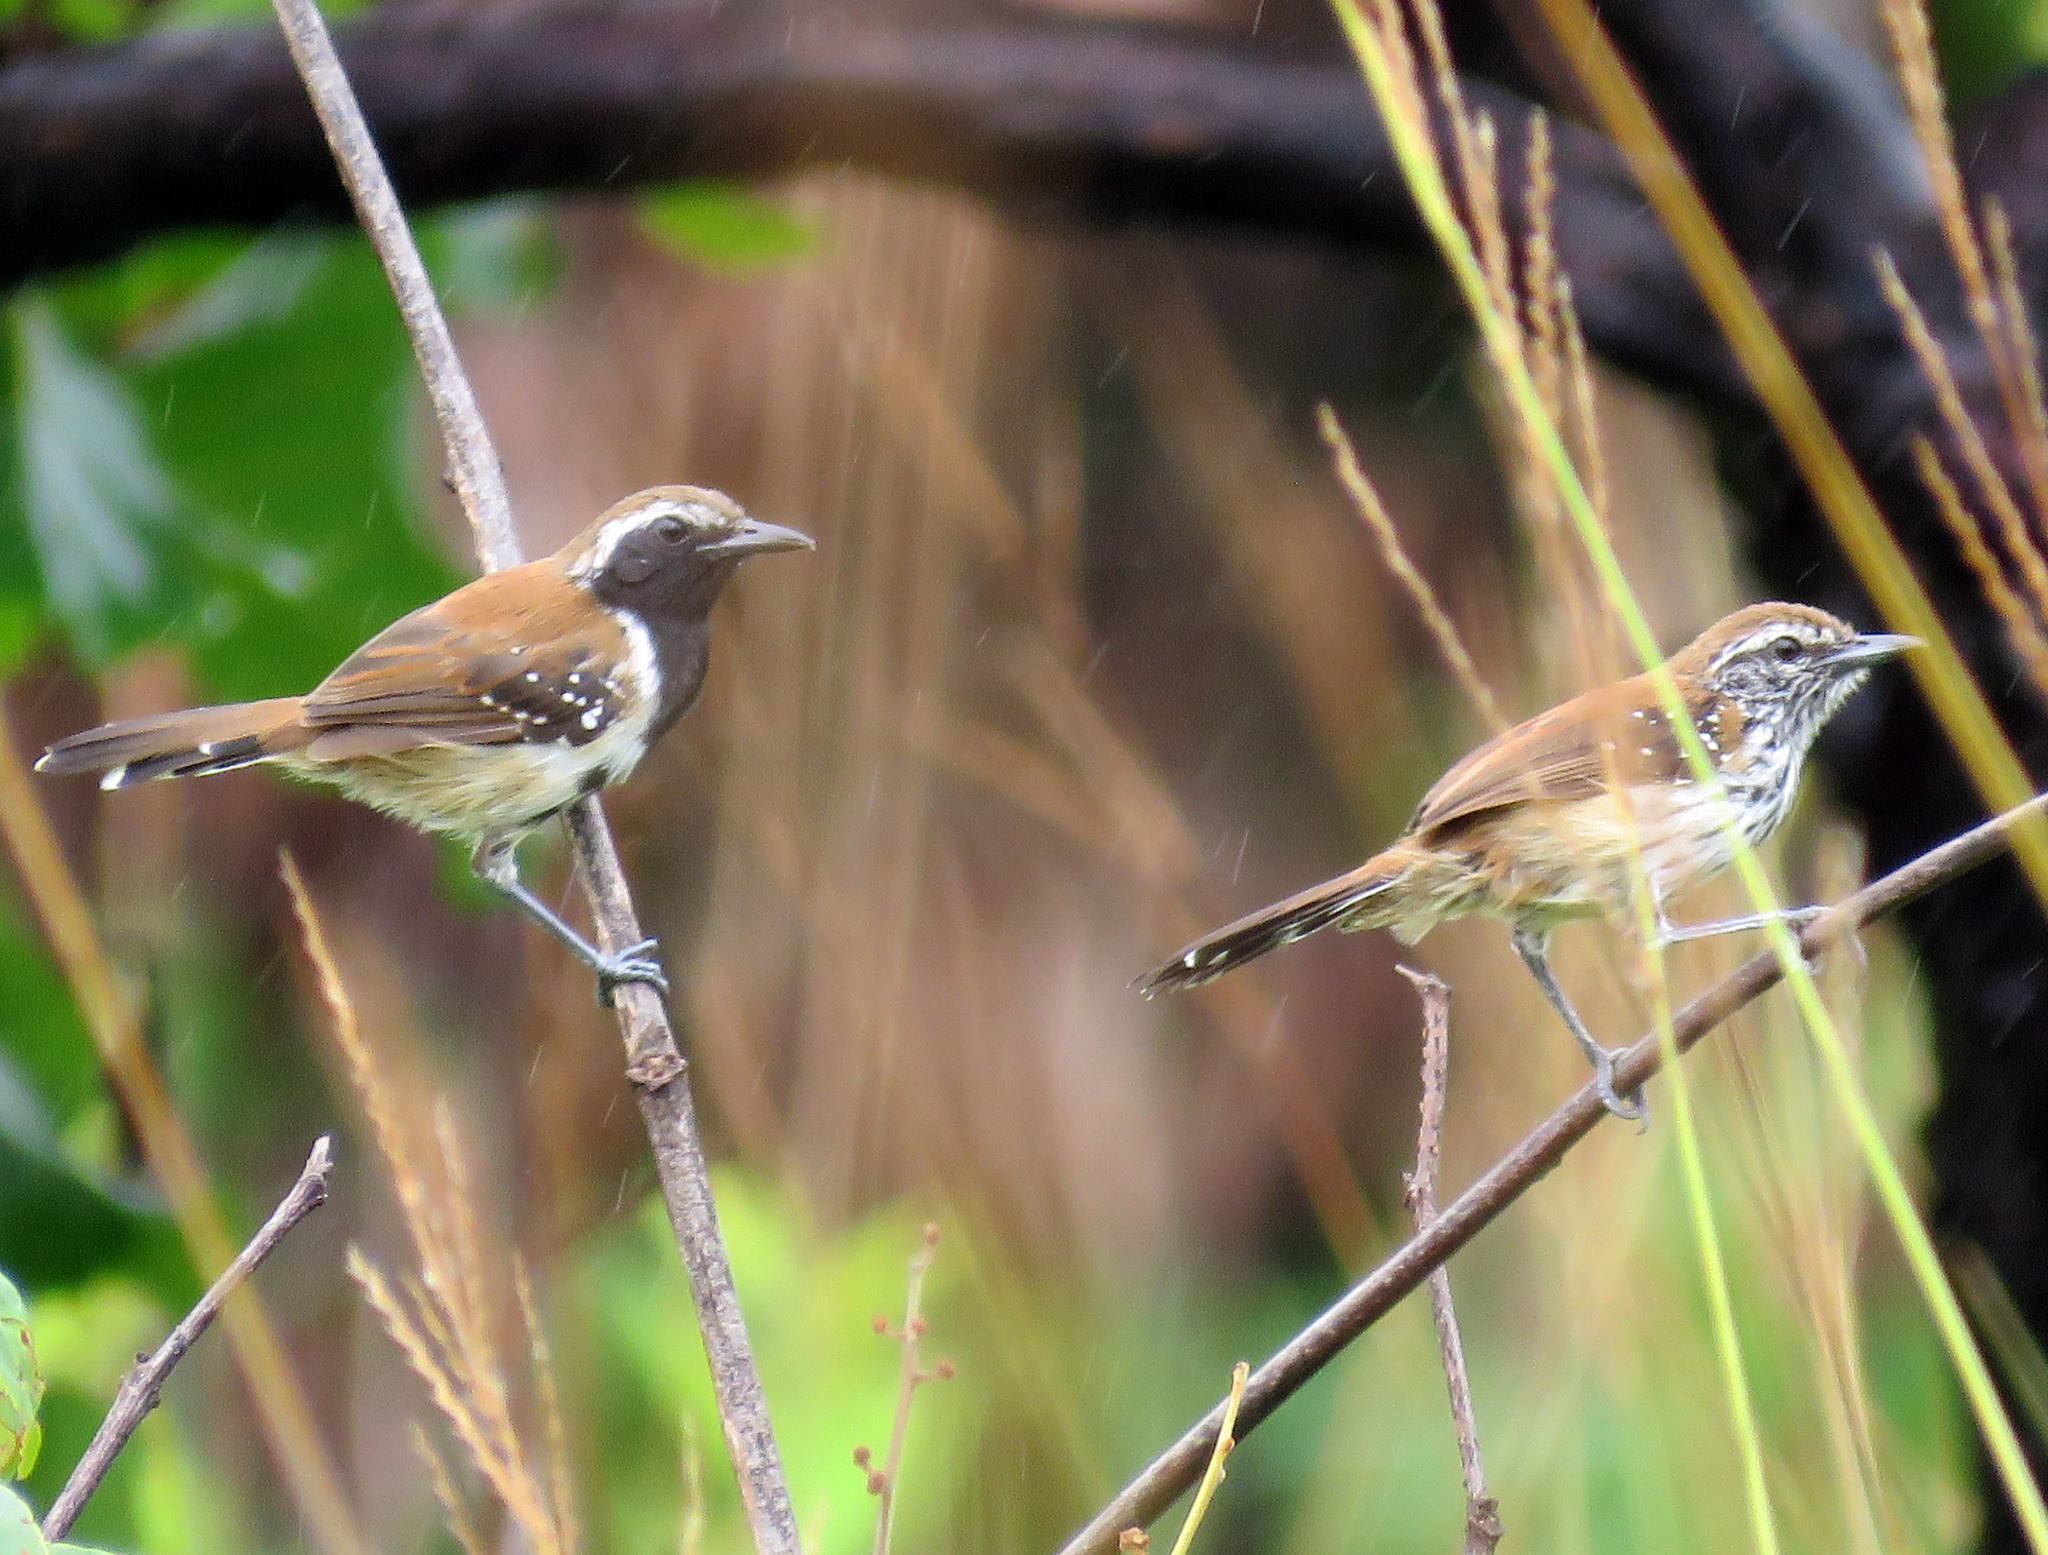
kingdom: Animalia
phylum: Chordata
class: Aves
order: Passeriformes
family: Thamnophilidae
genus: Formicivora
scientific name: Formicivora rufa
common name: Rusty-backed antwren
